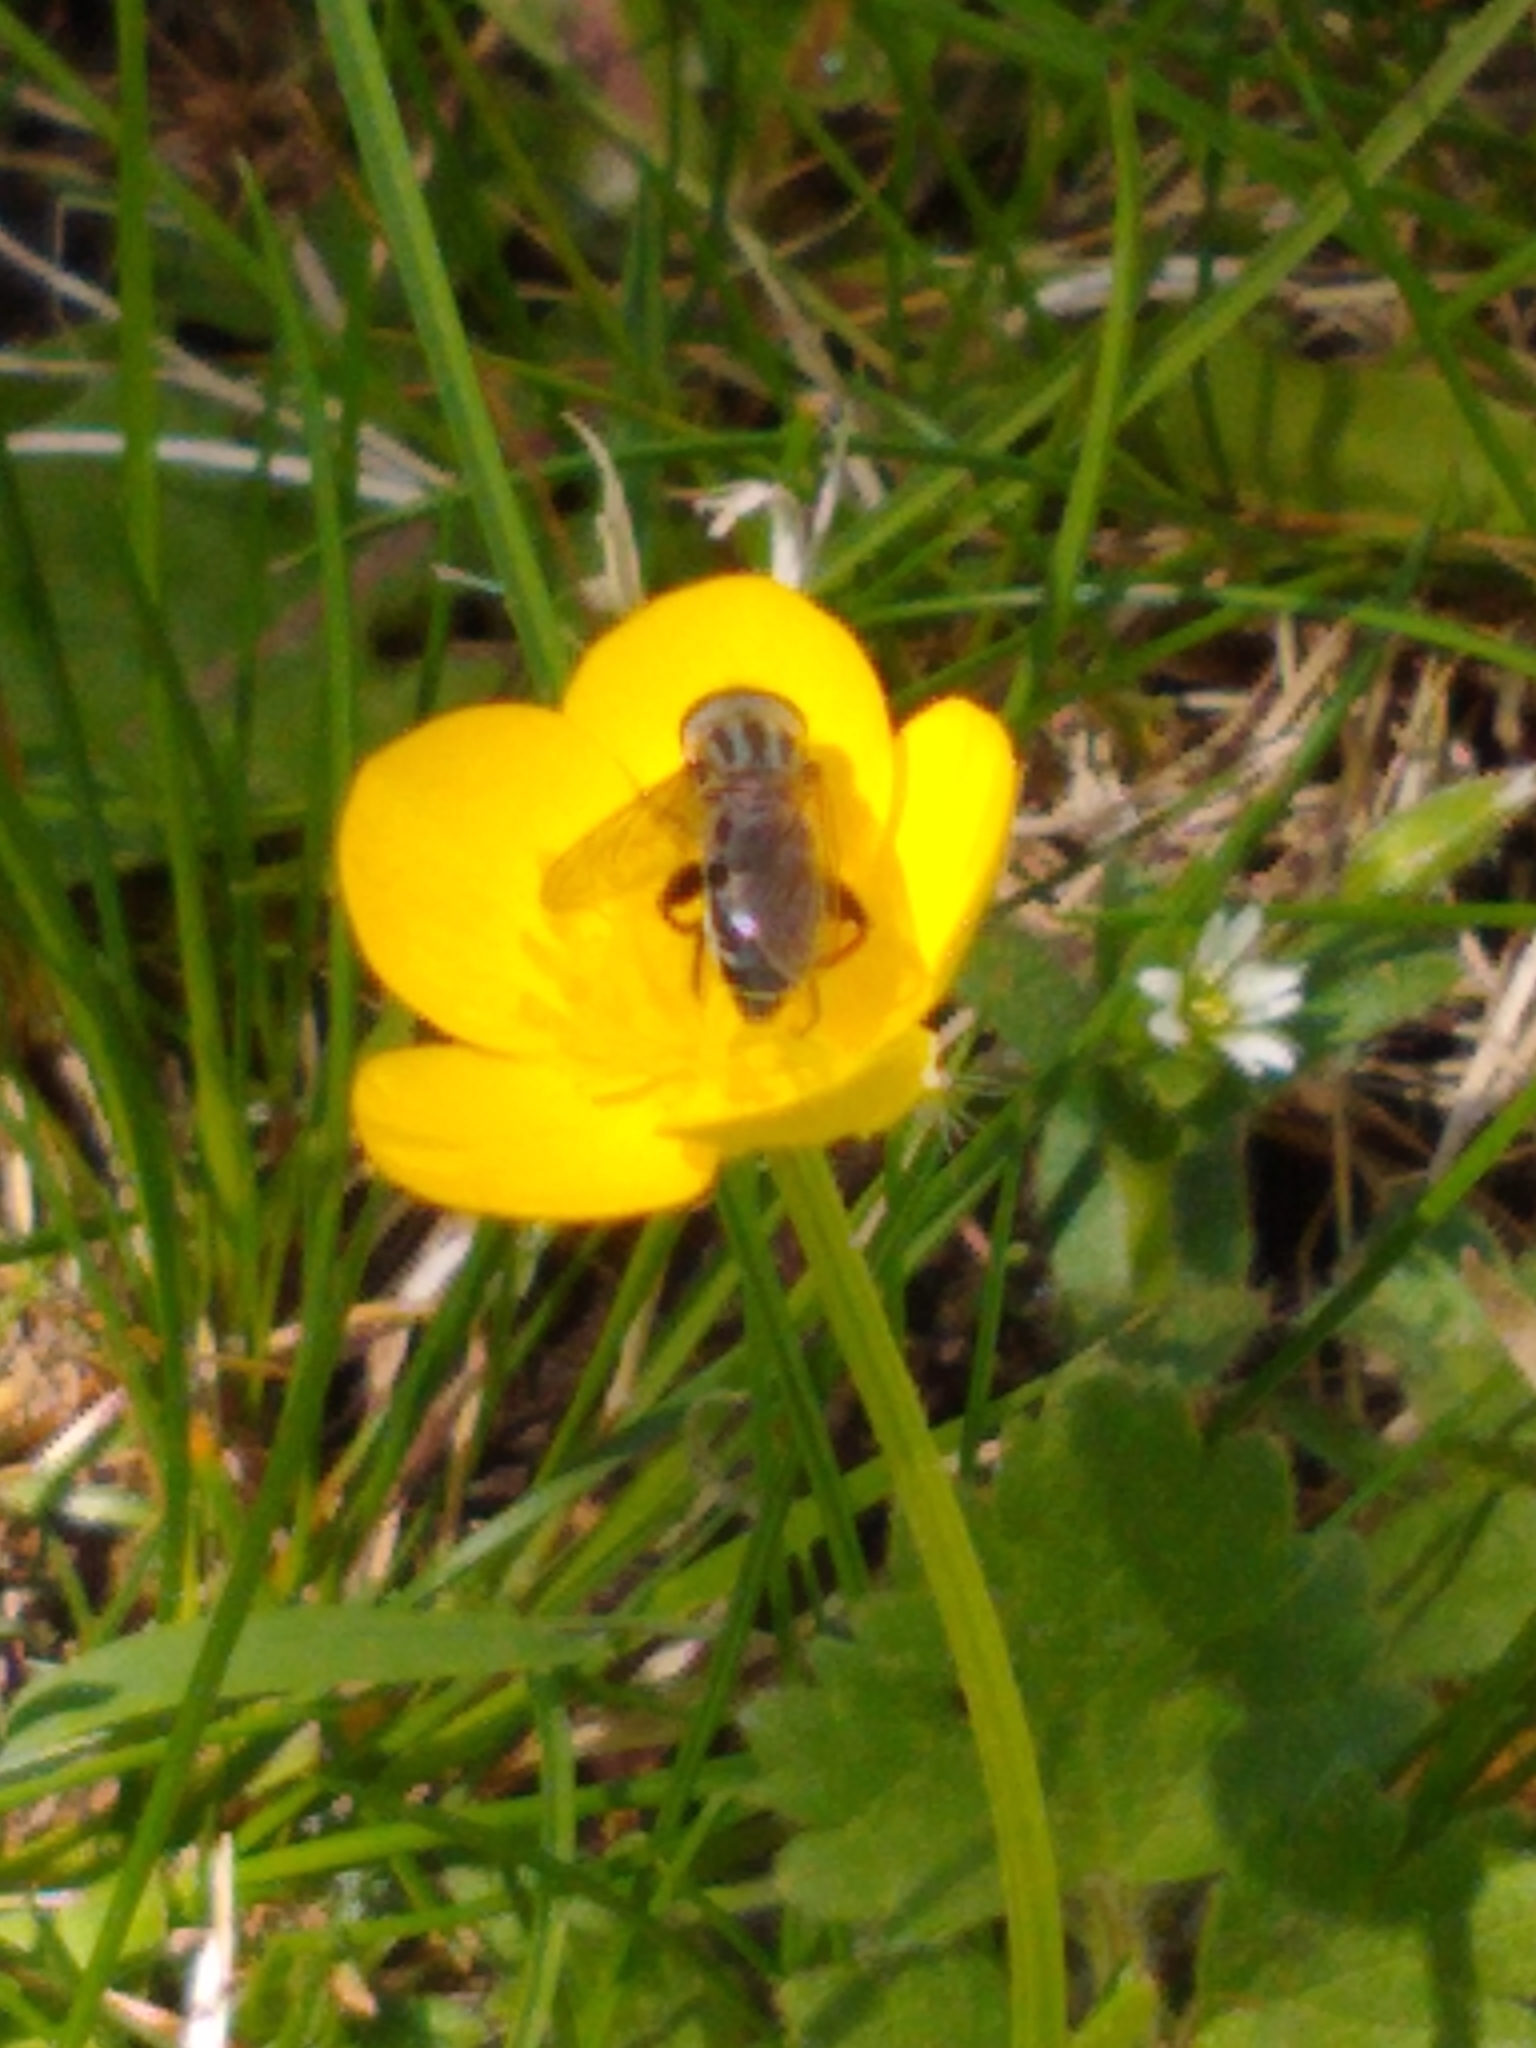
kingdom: Animalia
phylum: Arthropoda
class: Insecta
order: Diptera
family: Syrphidae
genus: Anasimyia
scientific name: Anasimyia bilinearis
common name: Two-lined swamp fly
